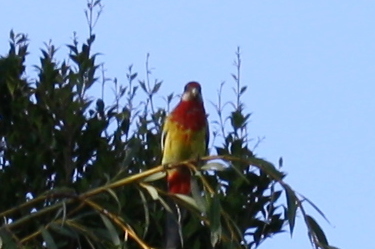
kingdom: Animalia
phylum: Chordata
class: Aves
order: Psittaciformes
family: Psittacidae
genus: Platycercus
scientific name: Platycercus eximius
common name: Eastern rosella
